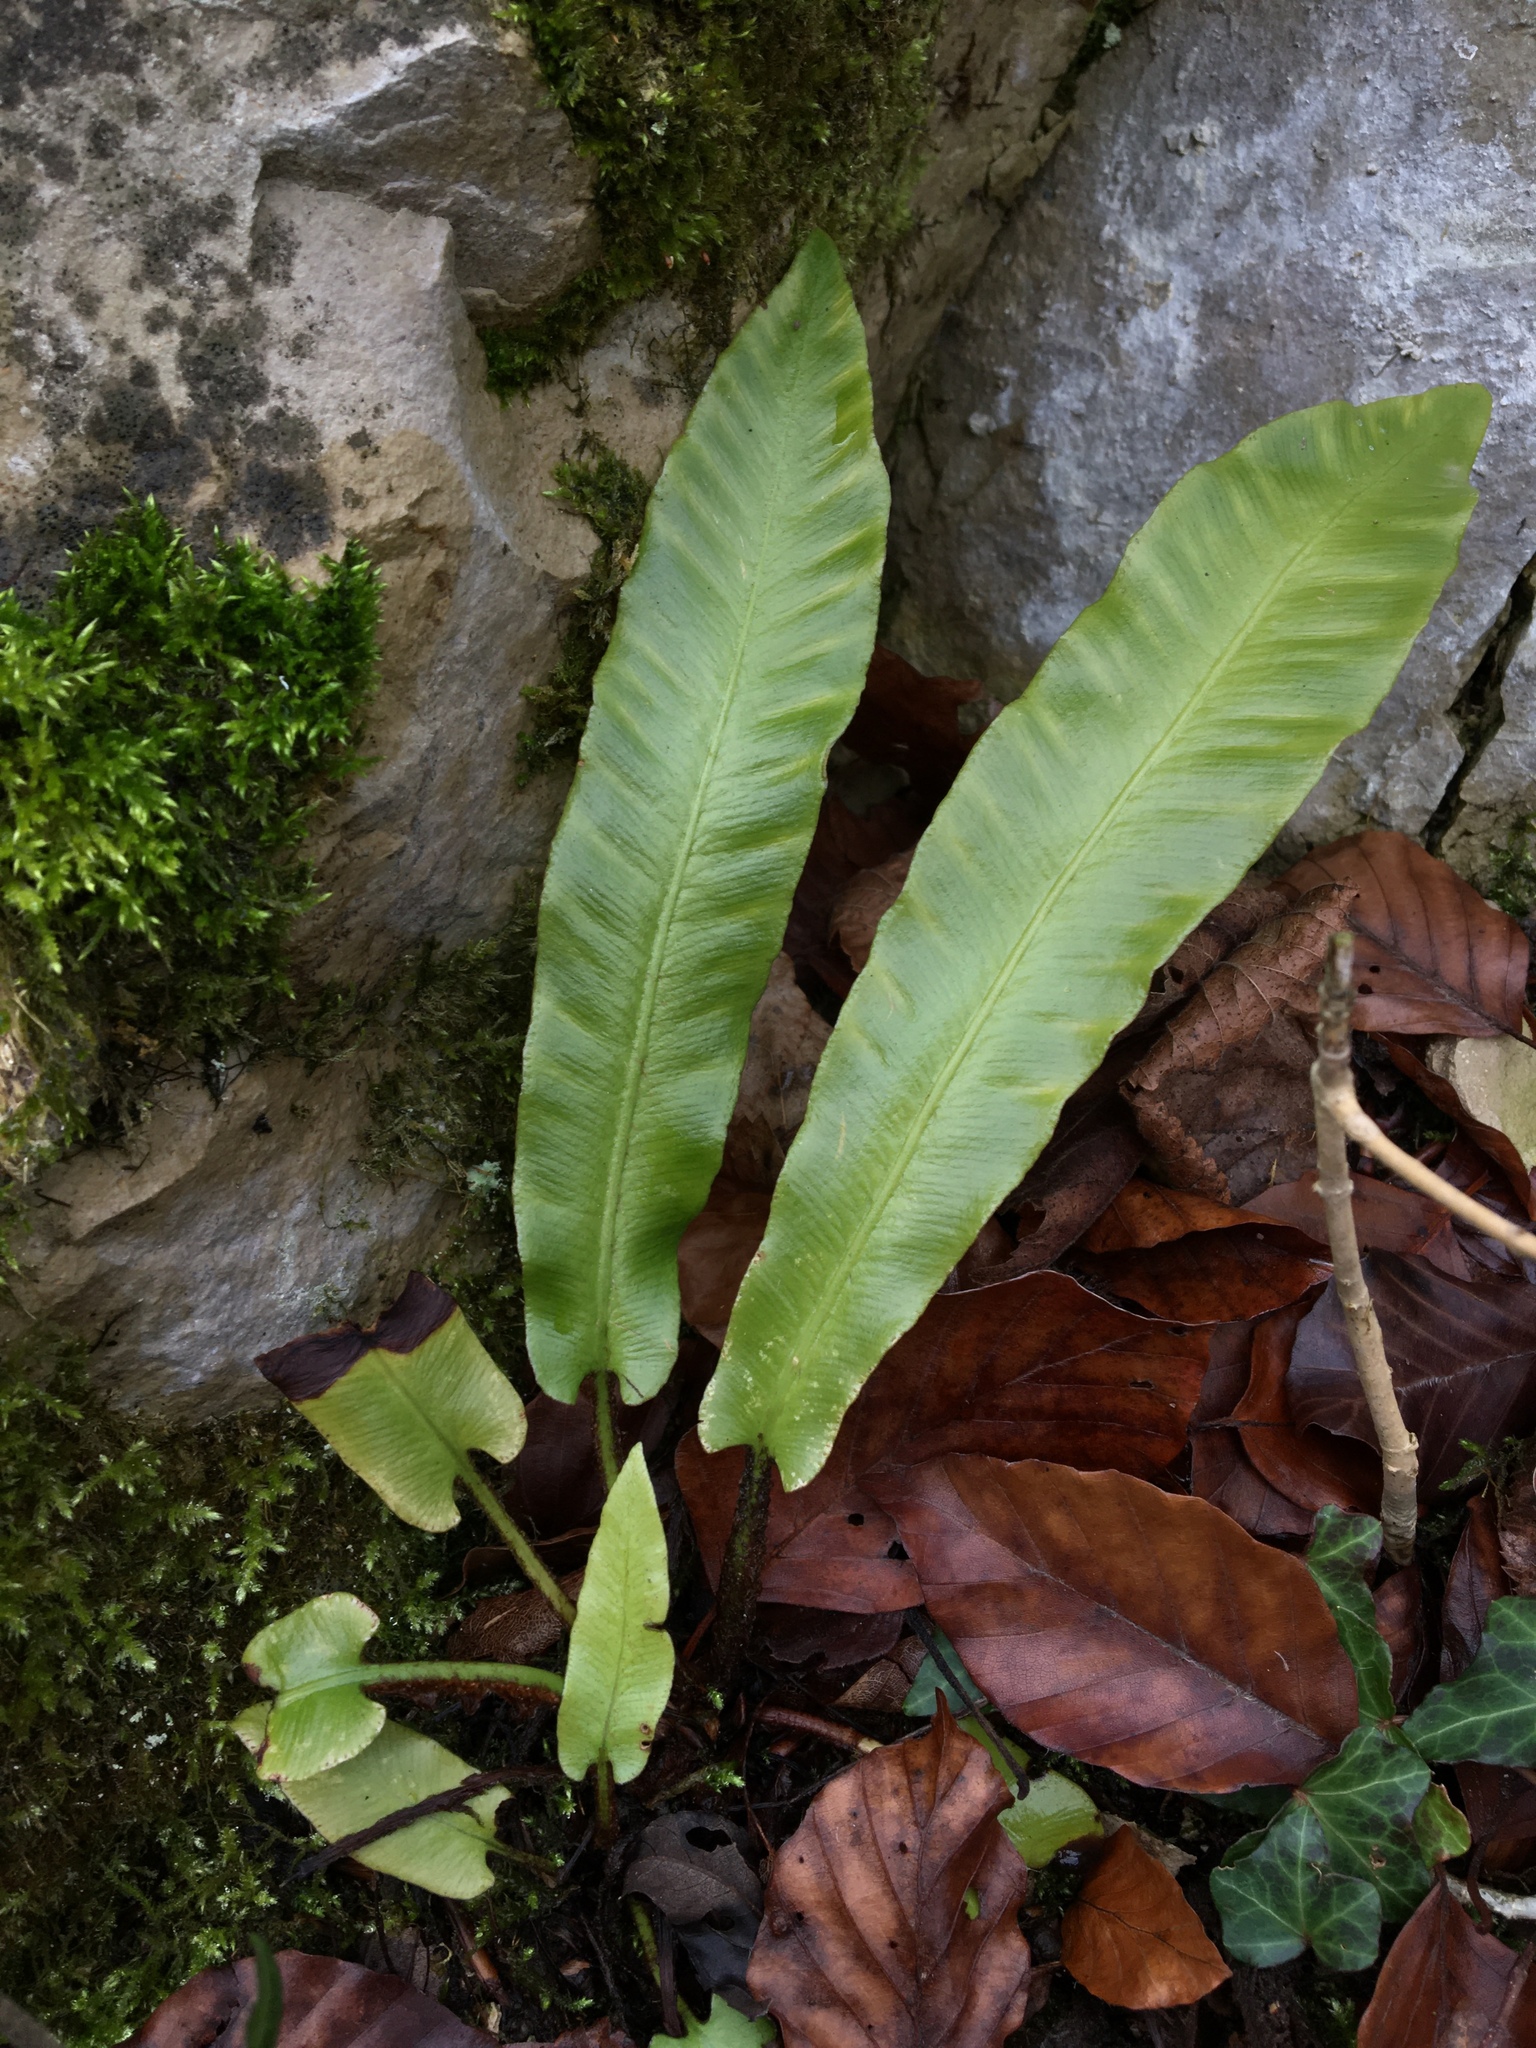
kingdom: Plantae
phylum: Tracheophyta
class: Polypodiopsida
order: Polypodiales
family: Aspleniaceae
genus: Asplenium
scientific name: Asplenium scolopendrium
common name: Hart's-tongue fern
